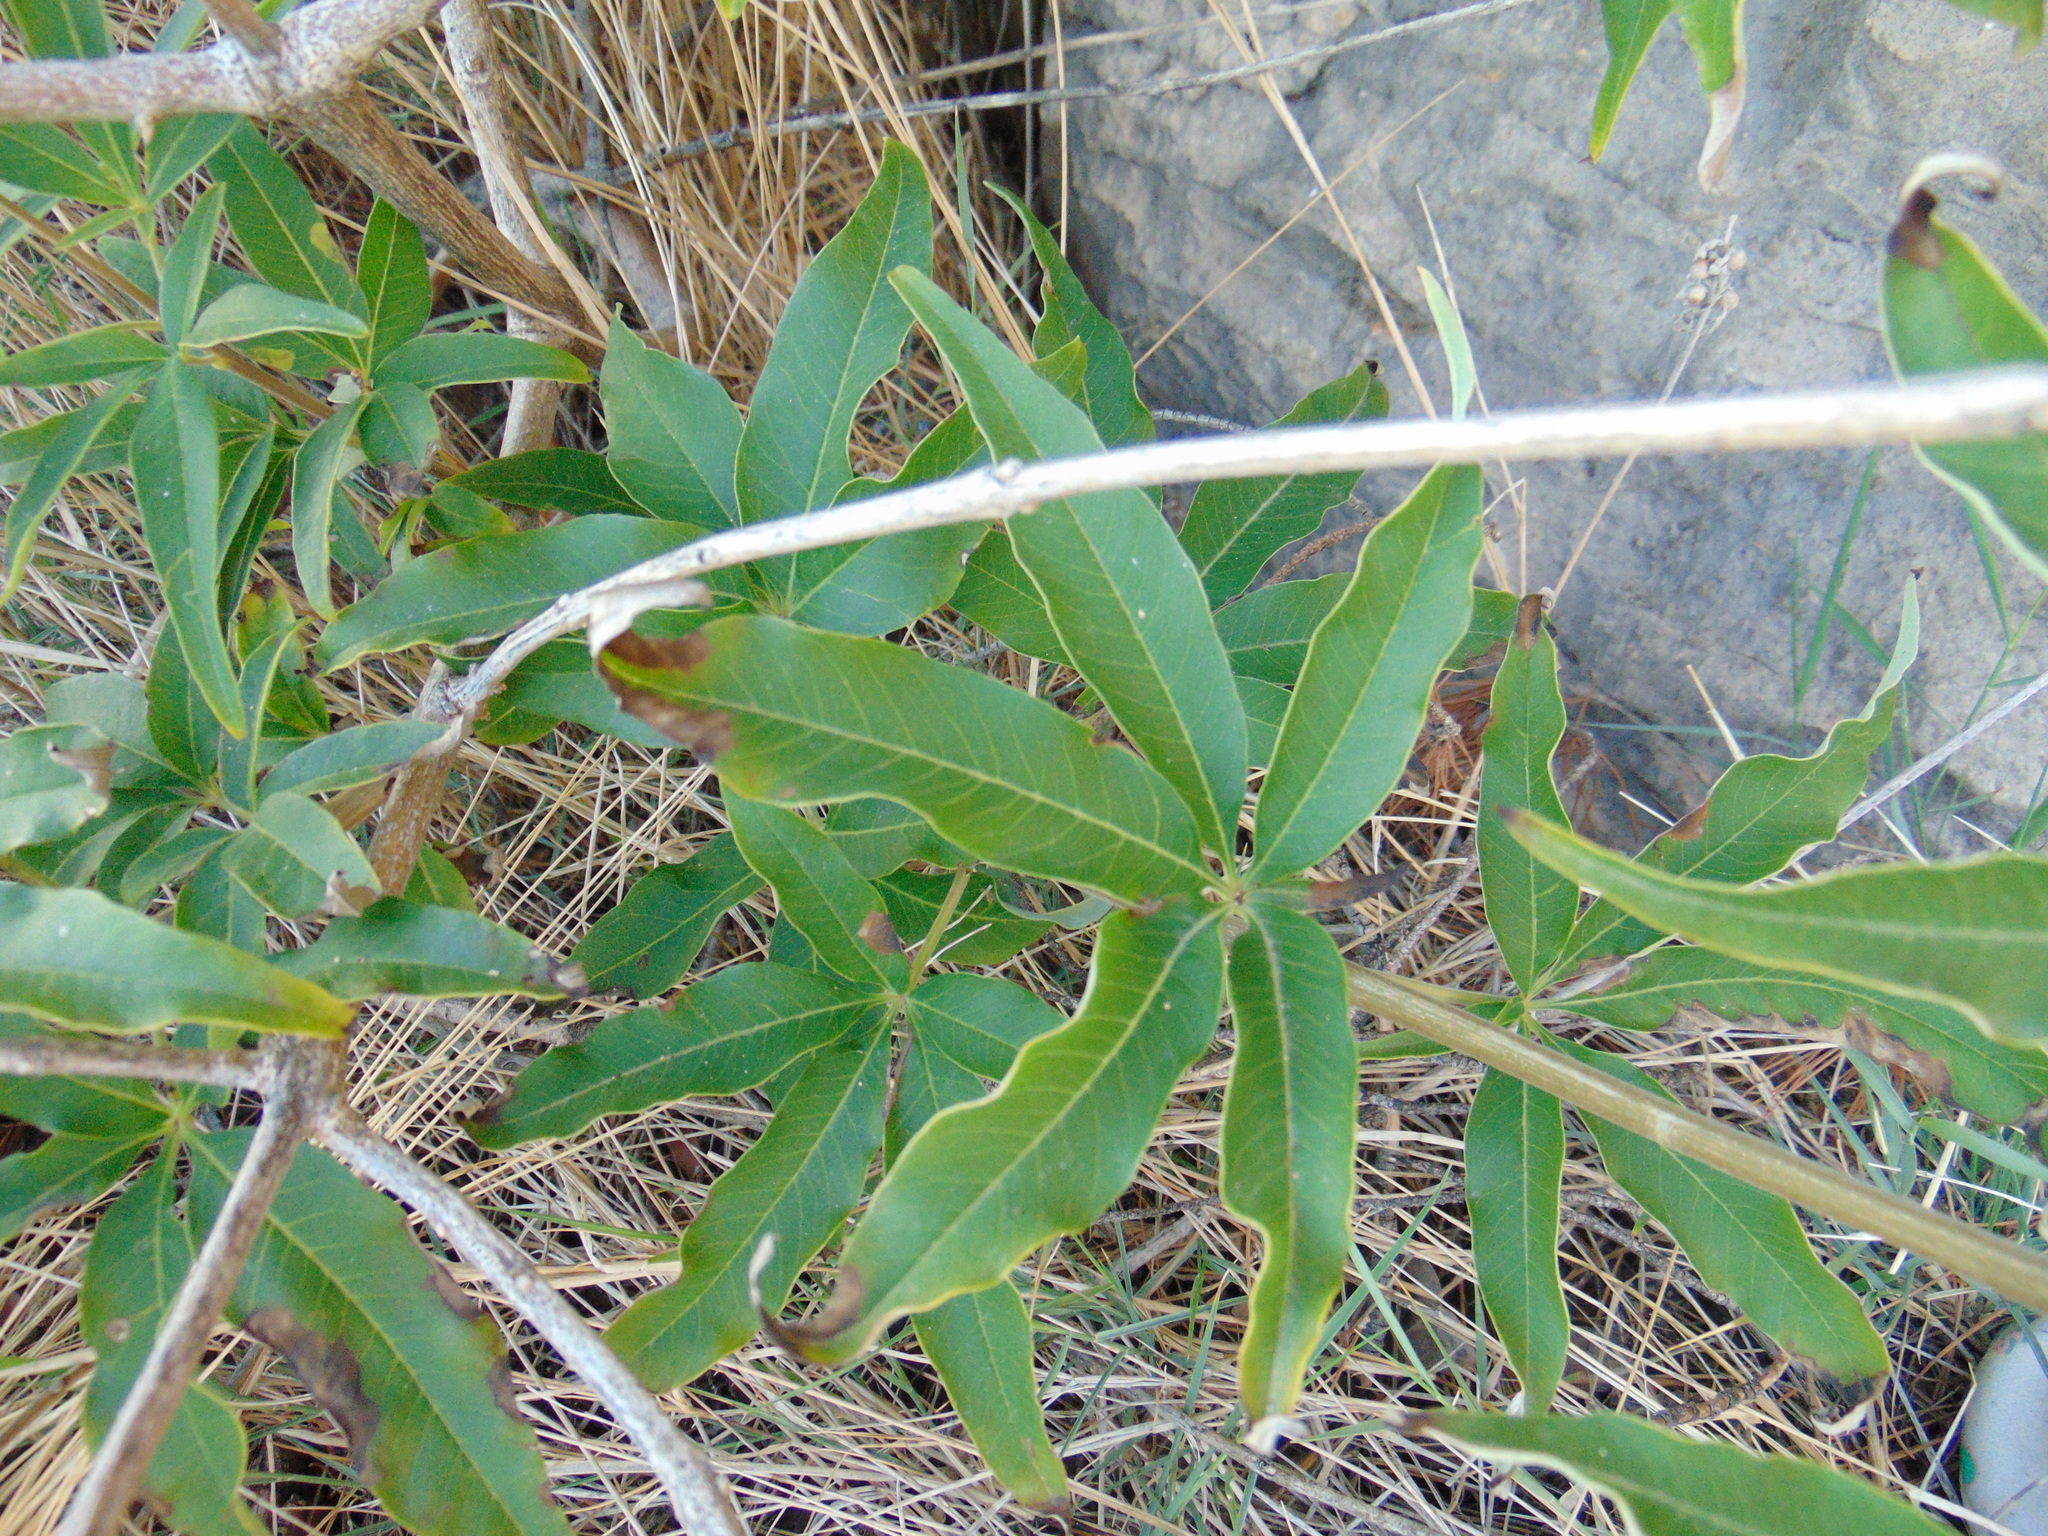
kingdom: Plantae
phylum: Tracheophyta
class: Magnoliopsida
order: Lamiales
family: Lamiaceae
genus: Vitex
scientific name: Vitex agnus-castus
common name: Chasteberry
